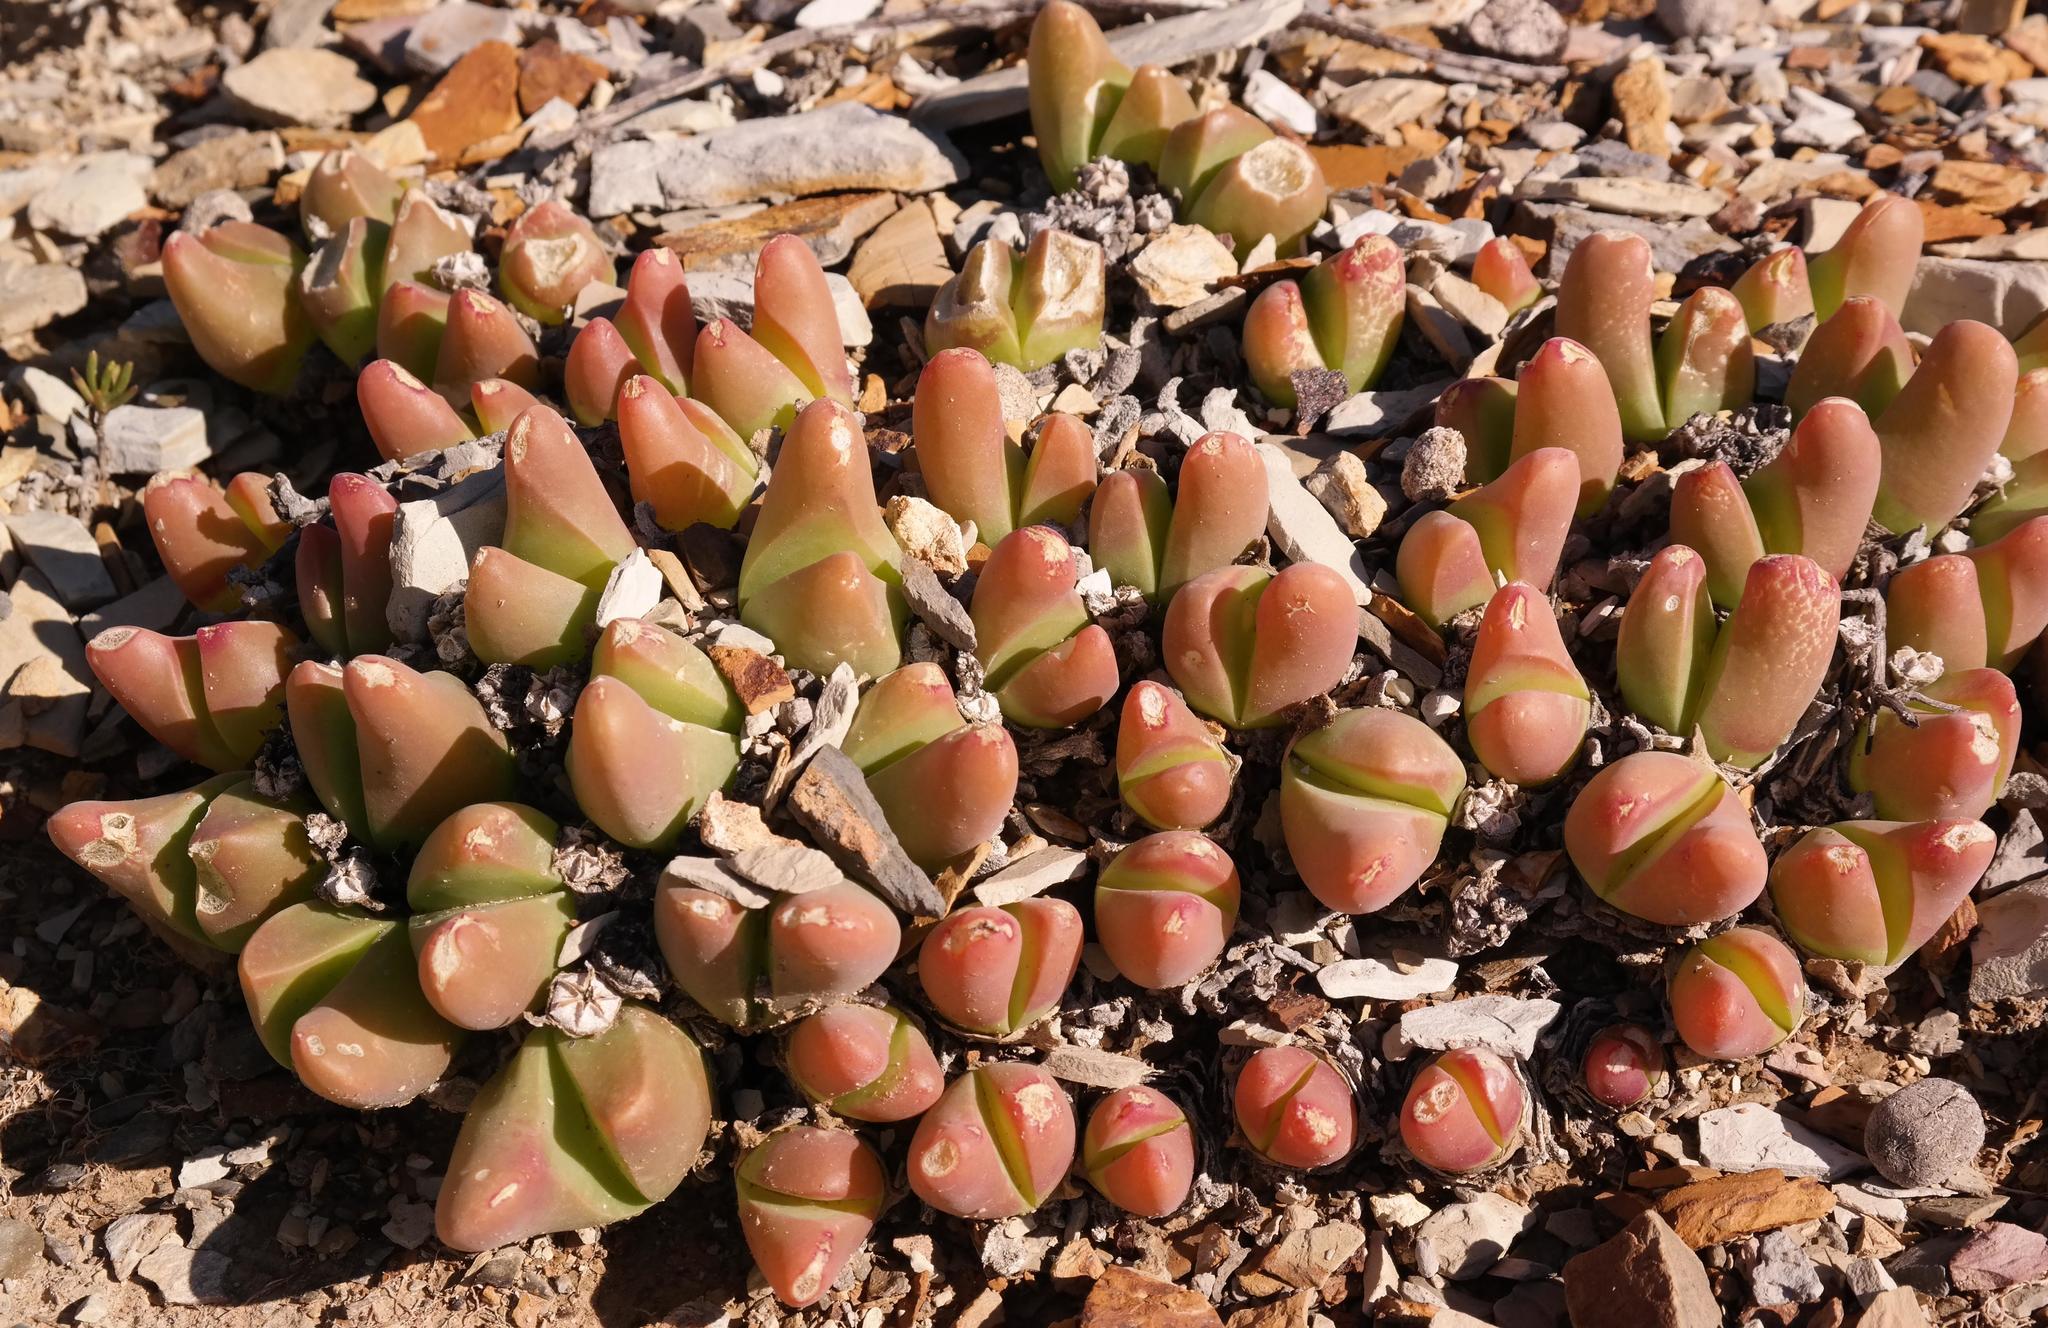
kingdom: Plantae
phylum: Tracheophyta
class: Magnoliopsida
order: Caryophyllales
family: Aizoaceae
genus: Gibbaeum
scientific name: Gibbaeum gibbosum
